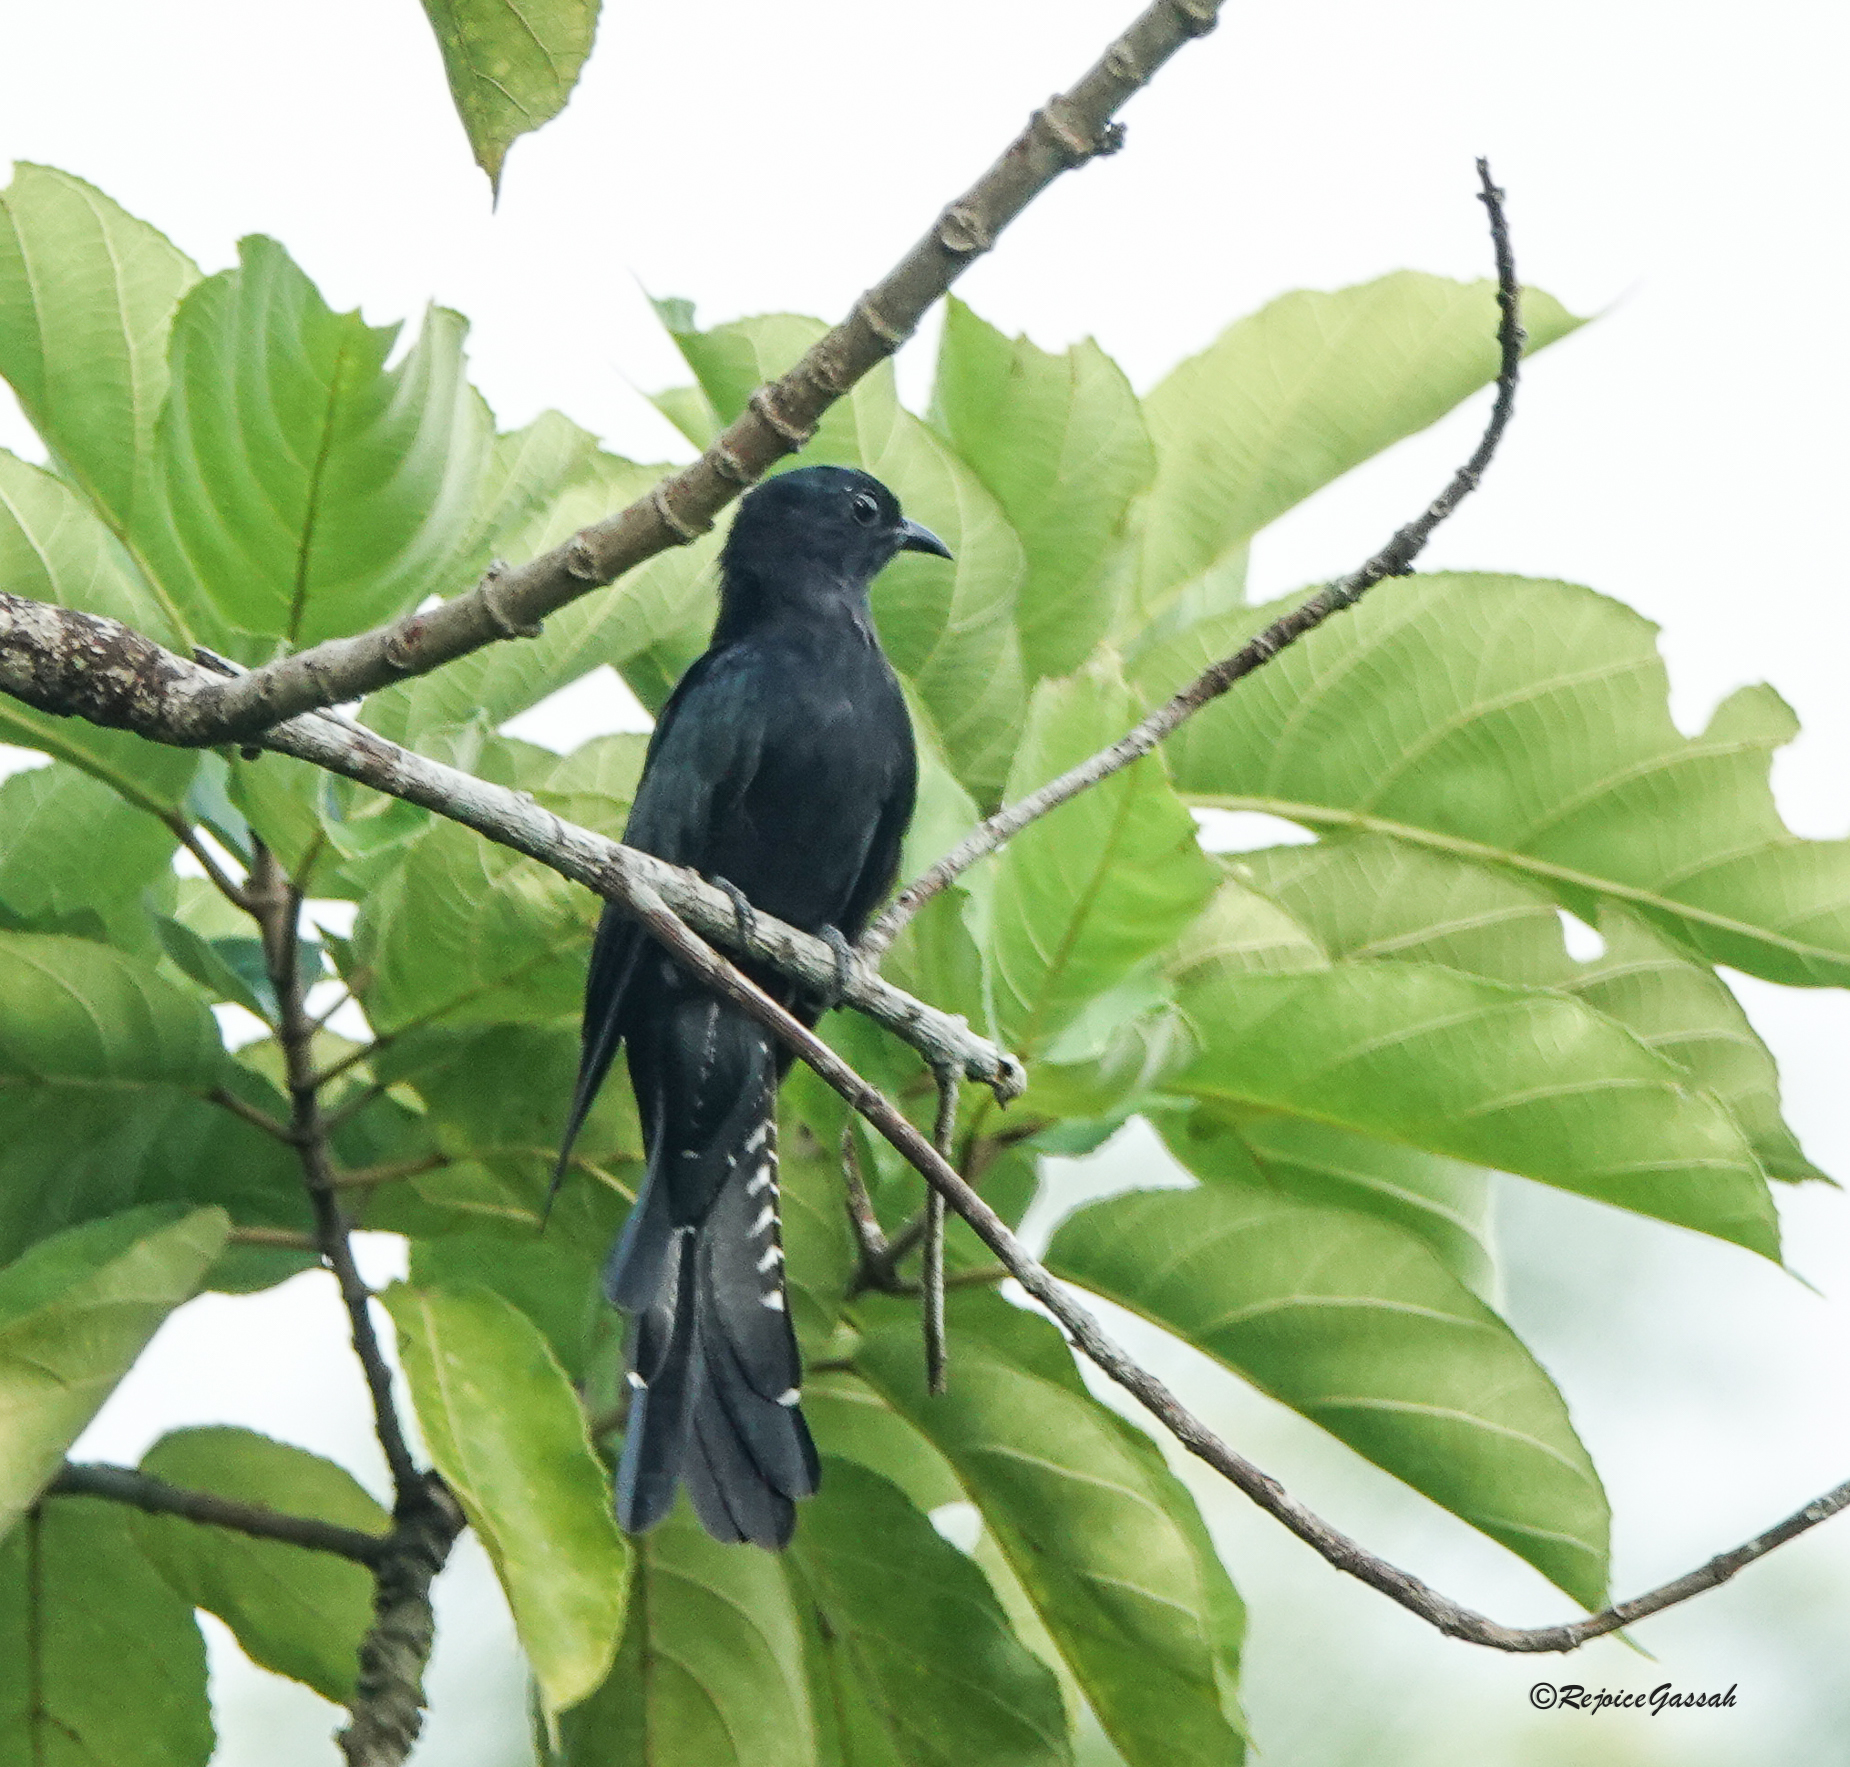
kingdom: Animalia
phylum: Chordata
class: Aves
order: Cuculiformes
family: Cuculidae
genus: Surniculus
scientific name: Surniculus lugubris
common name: Square-tailed drongo-cuckoo
